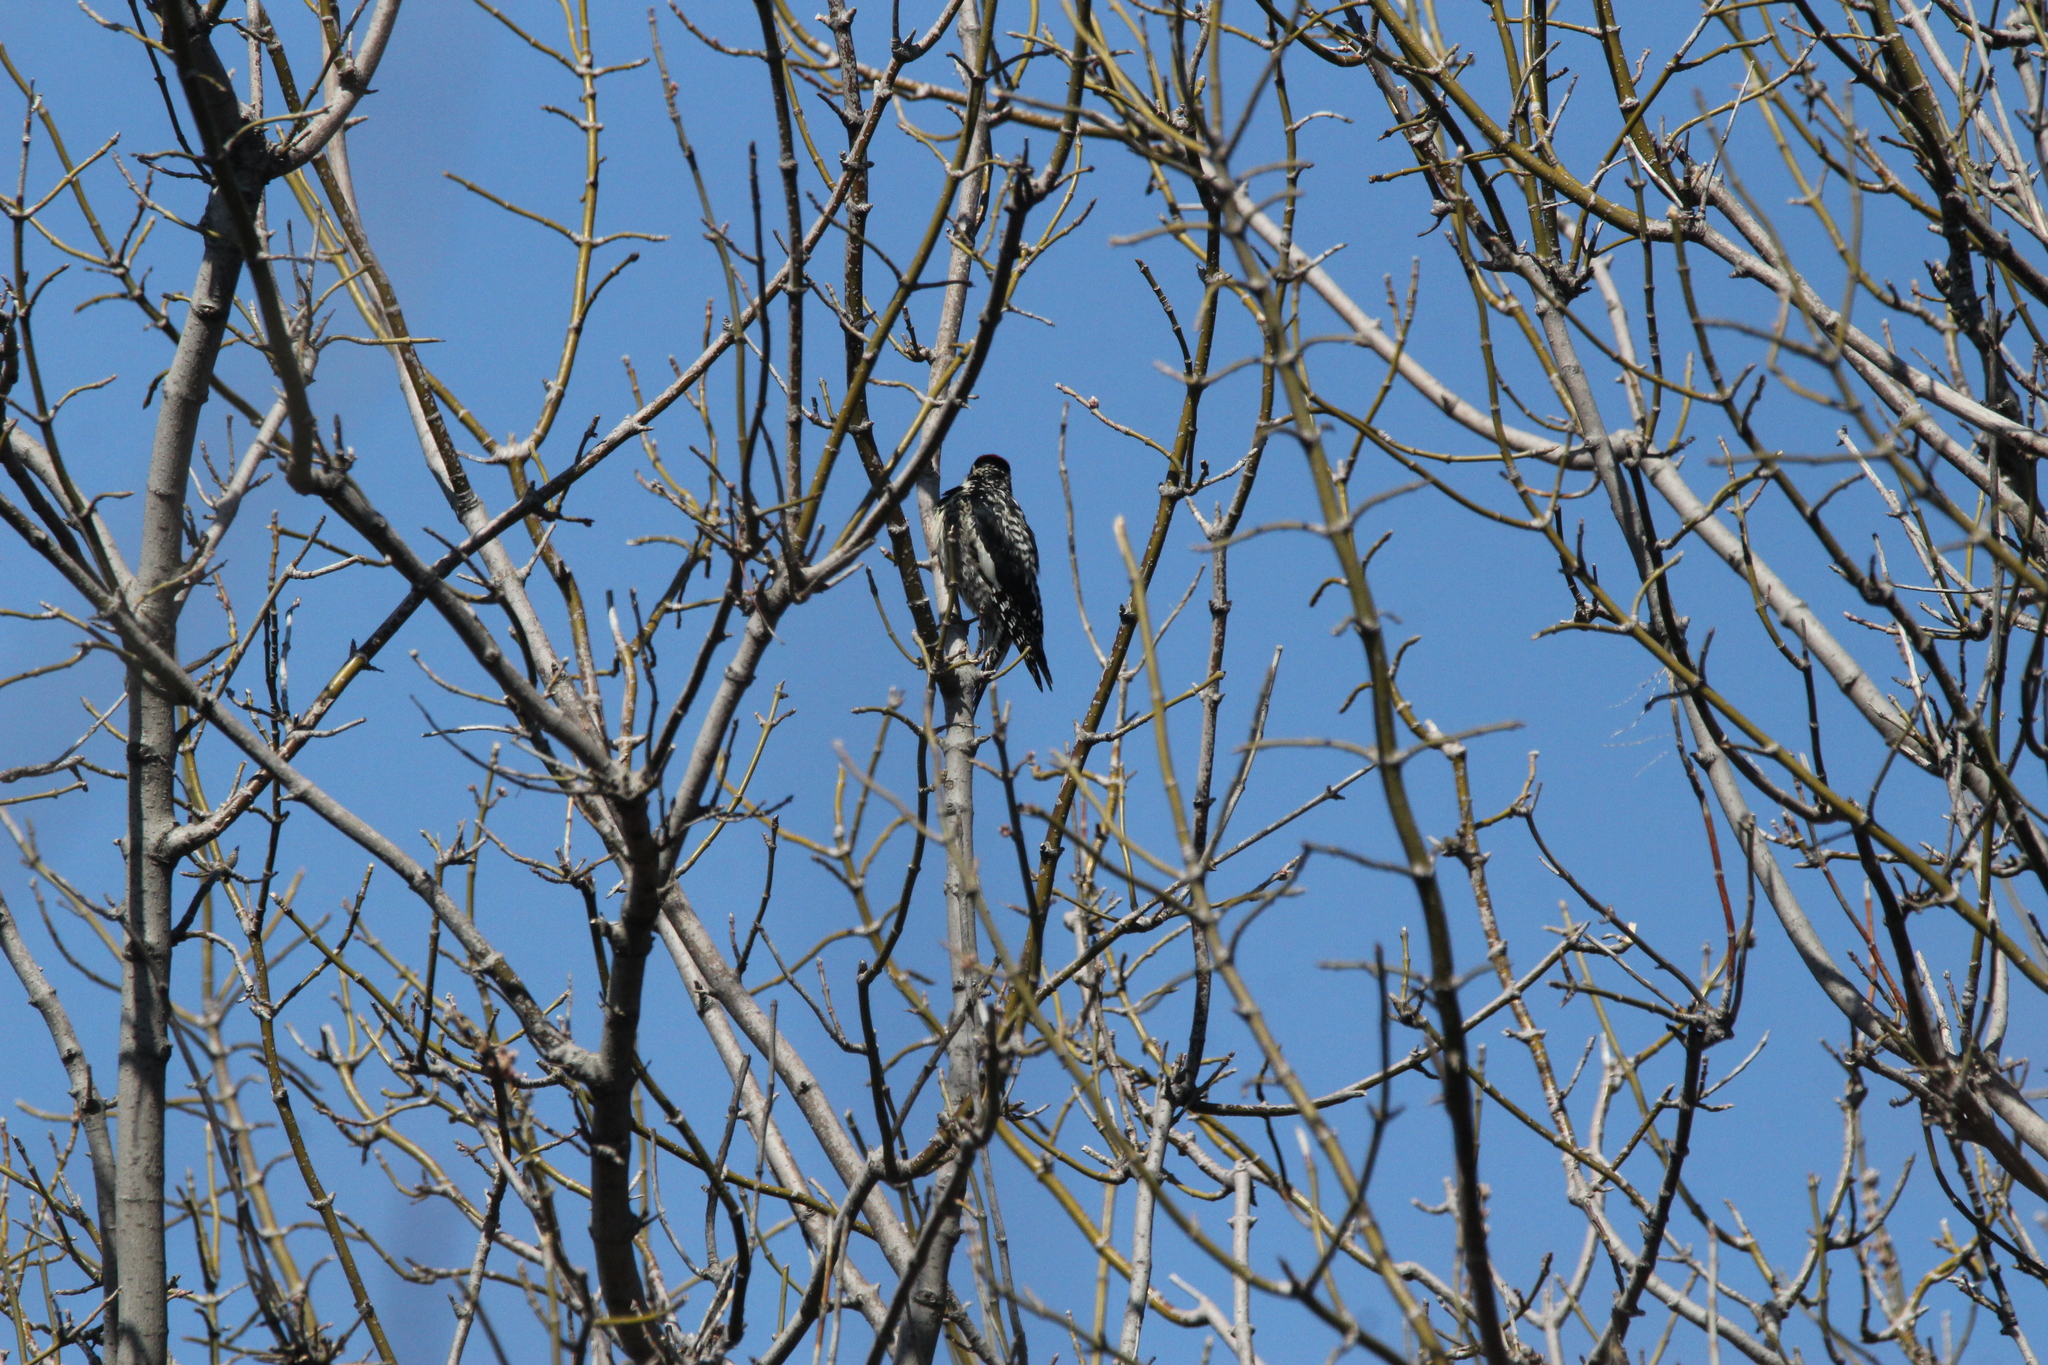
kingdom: Animalia
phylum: Chordata
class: Aves
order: Piciformes
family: Picidae
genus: Sphyrapicus
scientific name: Sphyrapicus varius
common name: Yellow-bellied sapsucker
